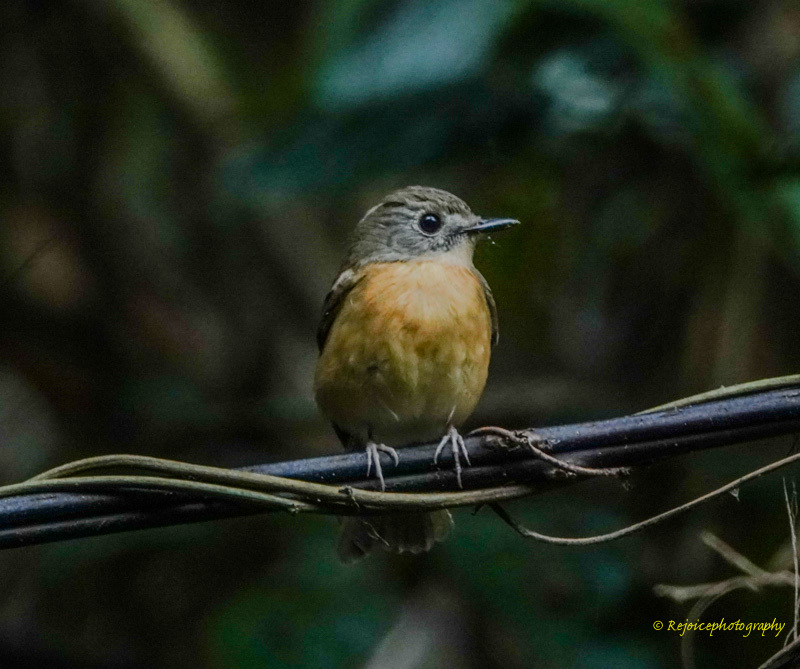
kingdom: Animalia
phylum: Chordata
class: Aves
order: Passeriformes
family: Muscicapidae
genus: Cyornis
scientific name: Cyornis poliogenys
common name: Pale-chinned blue flycatcher
